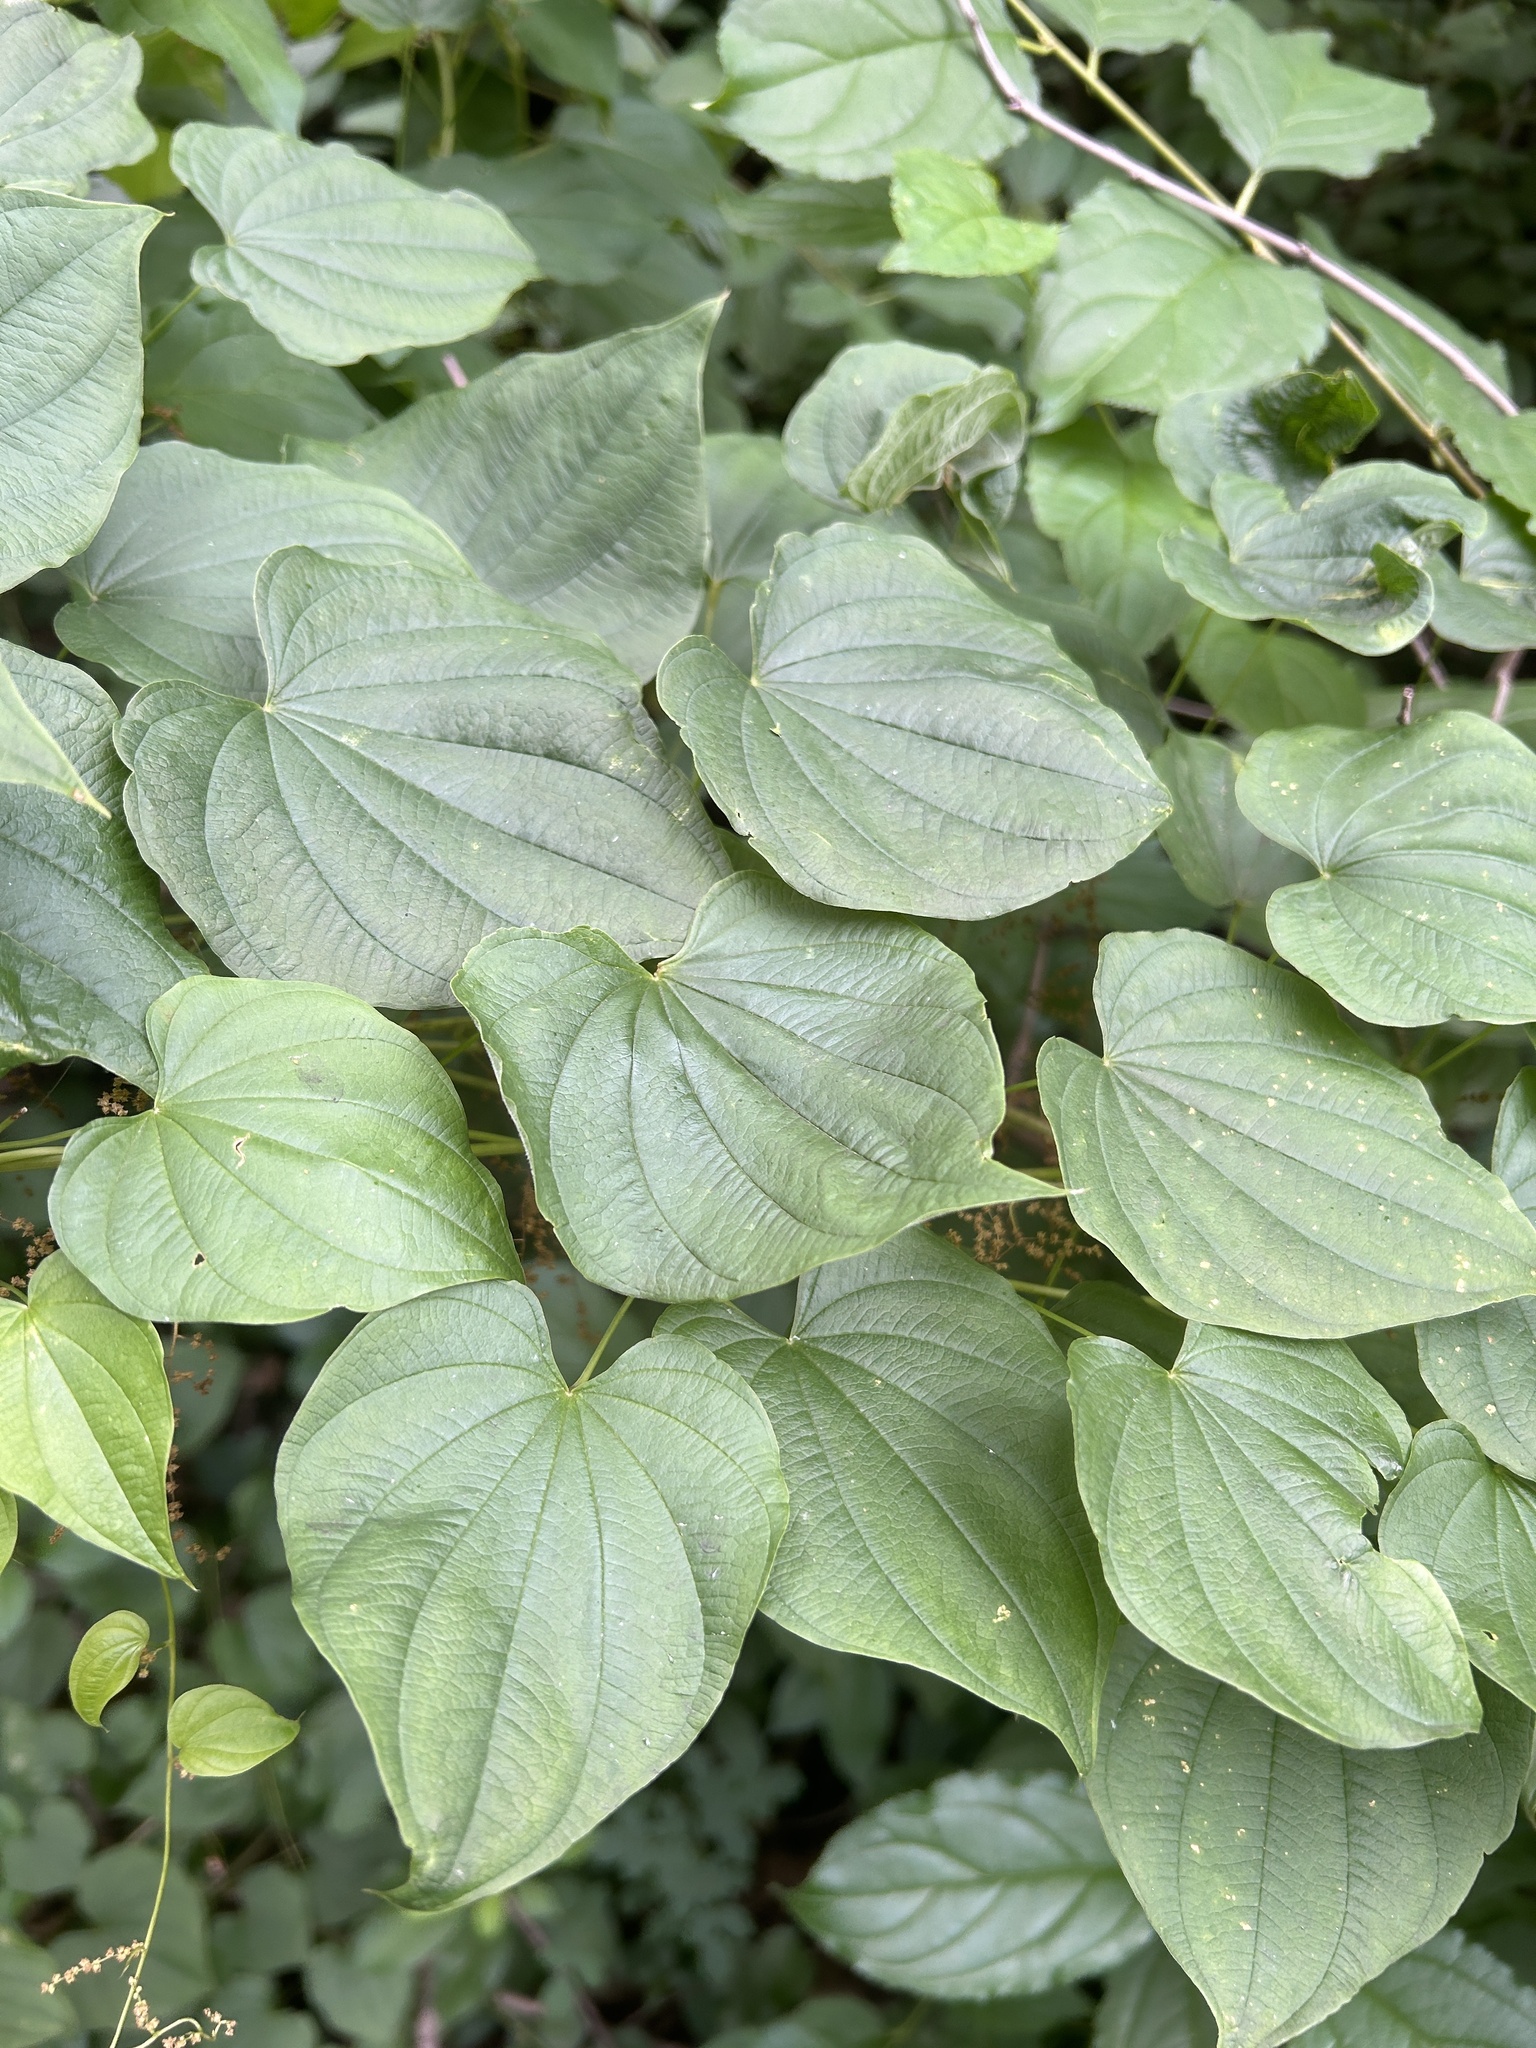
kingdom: Plantae
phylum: Tracheophyta
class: Liliopsida
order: Dioscoreales
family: Dioscoreaceae
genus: Dioscorea
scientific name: Dioscorea villosa
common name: Wild yam
